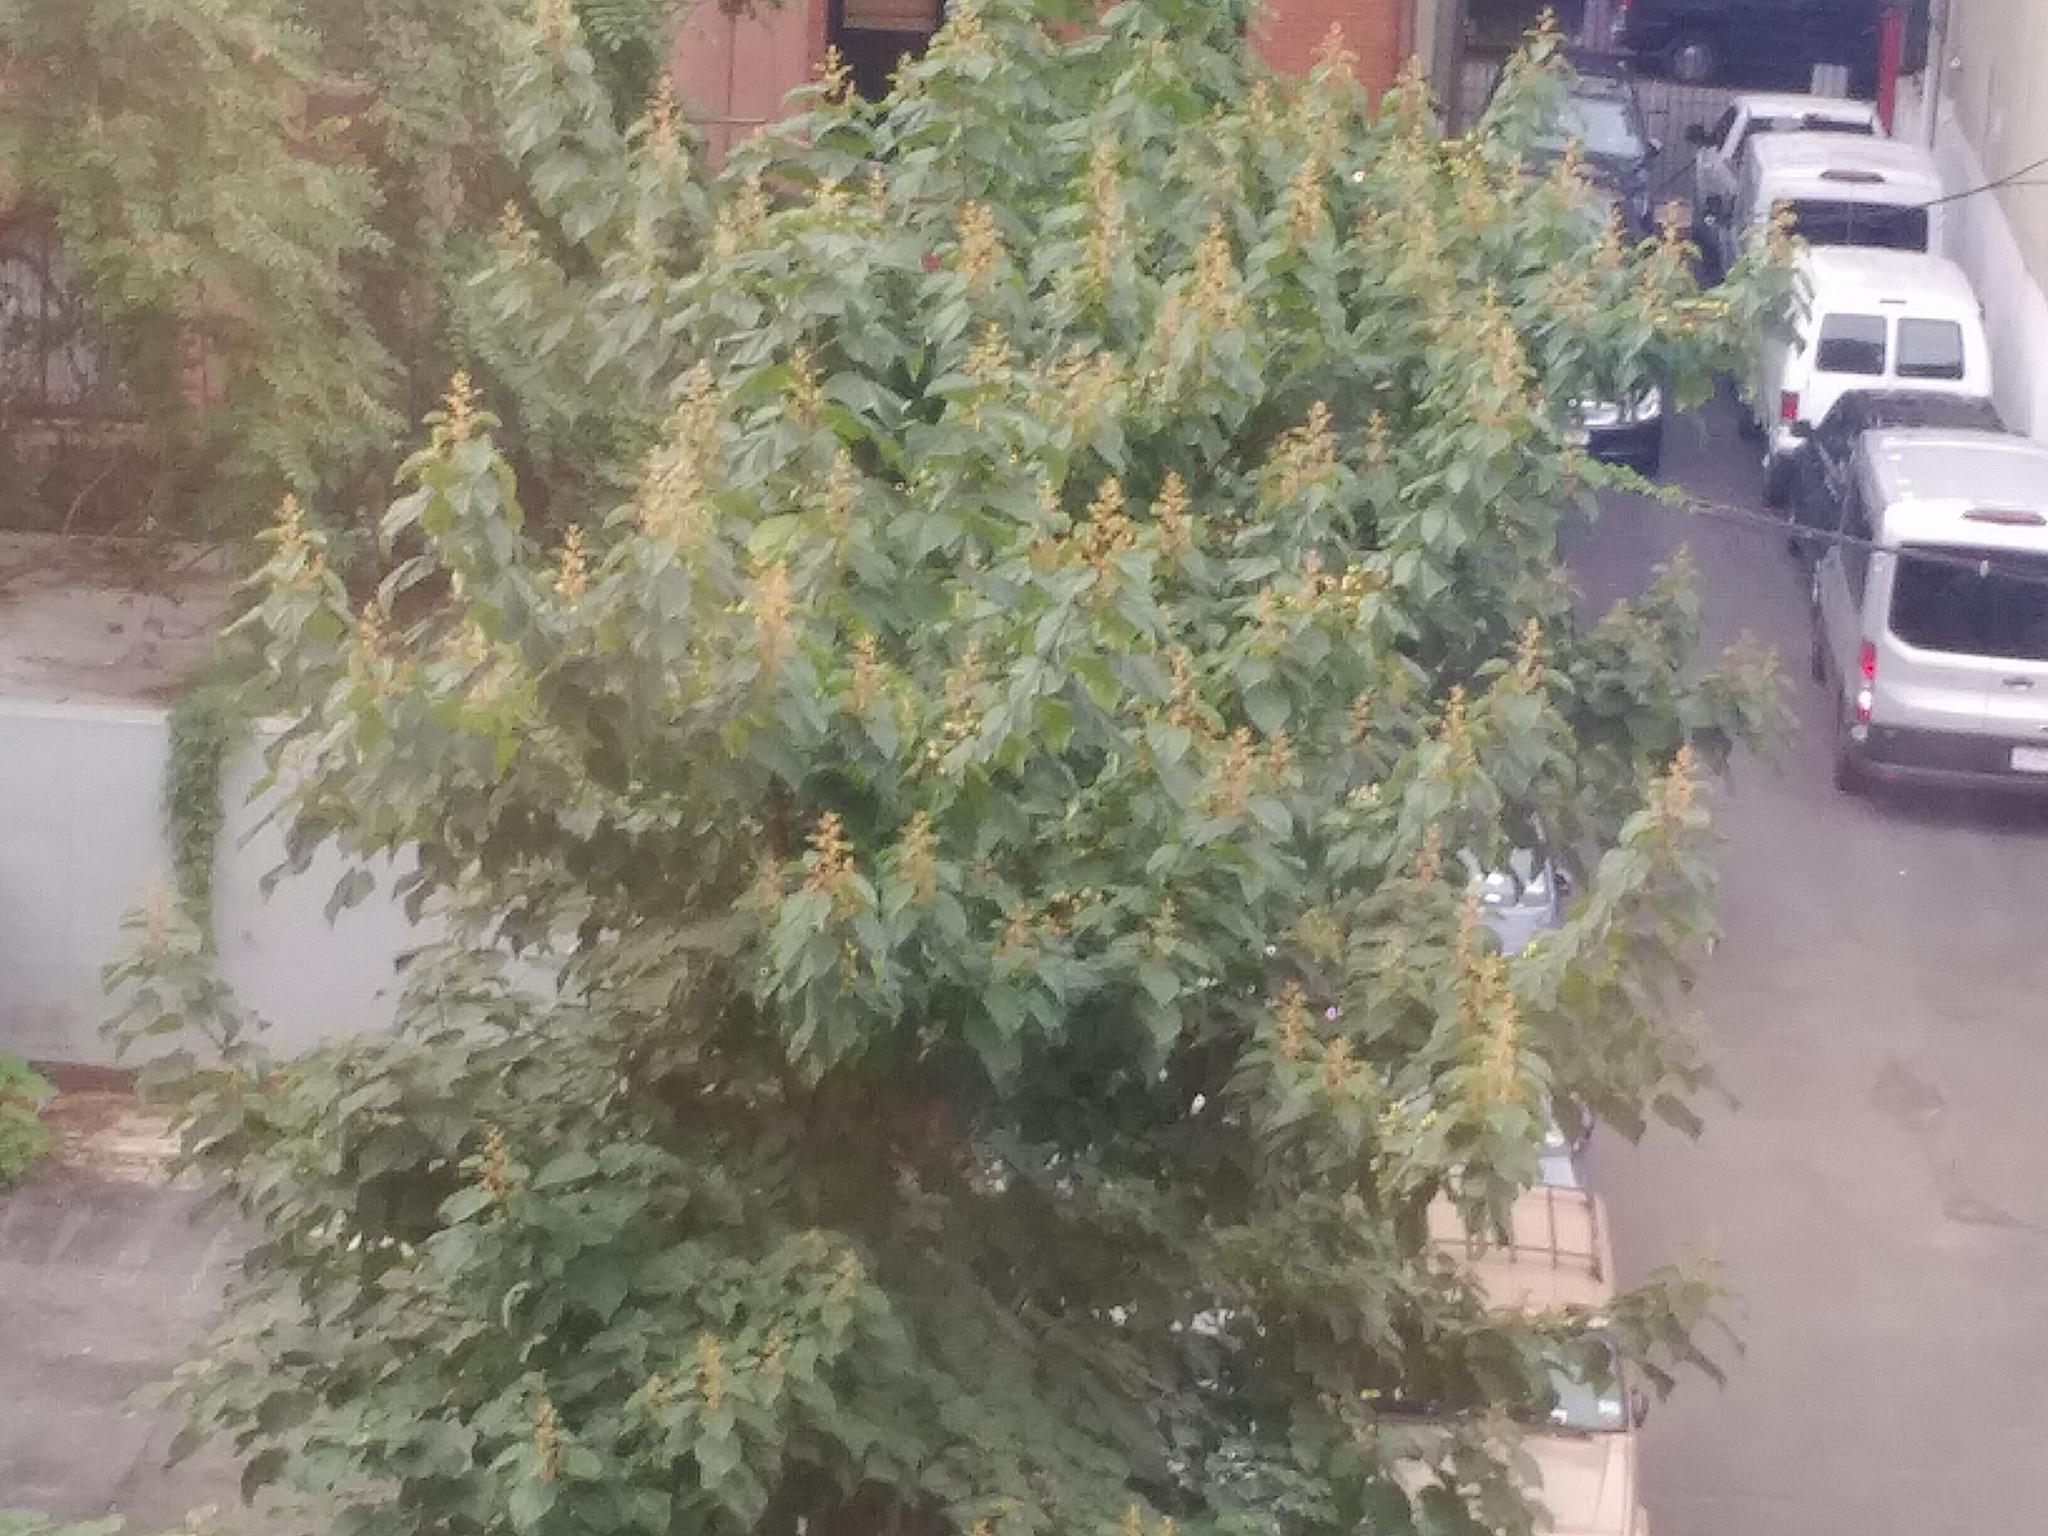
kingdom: Plantae
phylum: Tracheophyta
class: Magnoliopsida
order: Lamiales
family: Paulowniaceae
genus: Paulownia
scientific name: Paulownia tomentosa
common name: Foxglove-tree
